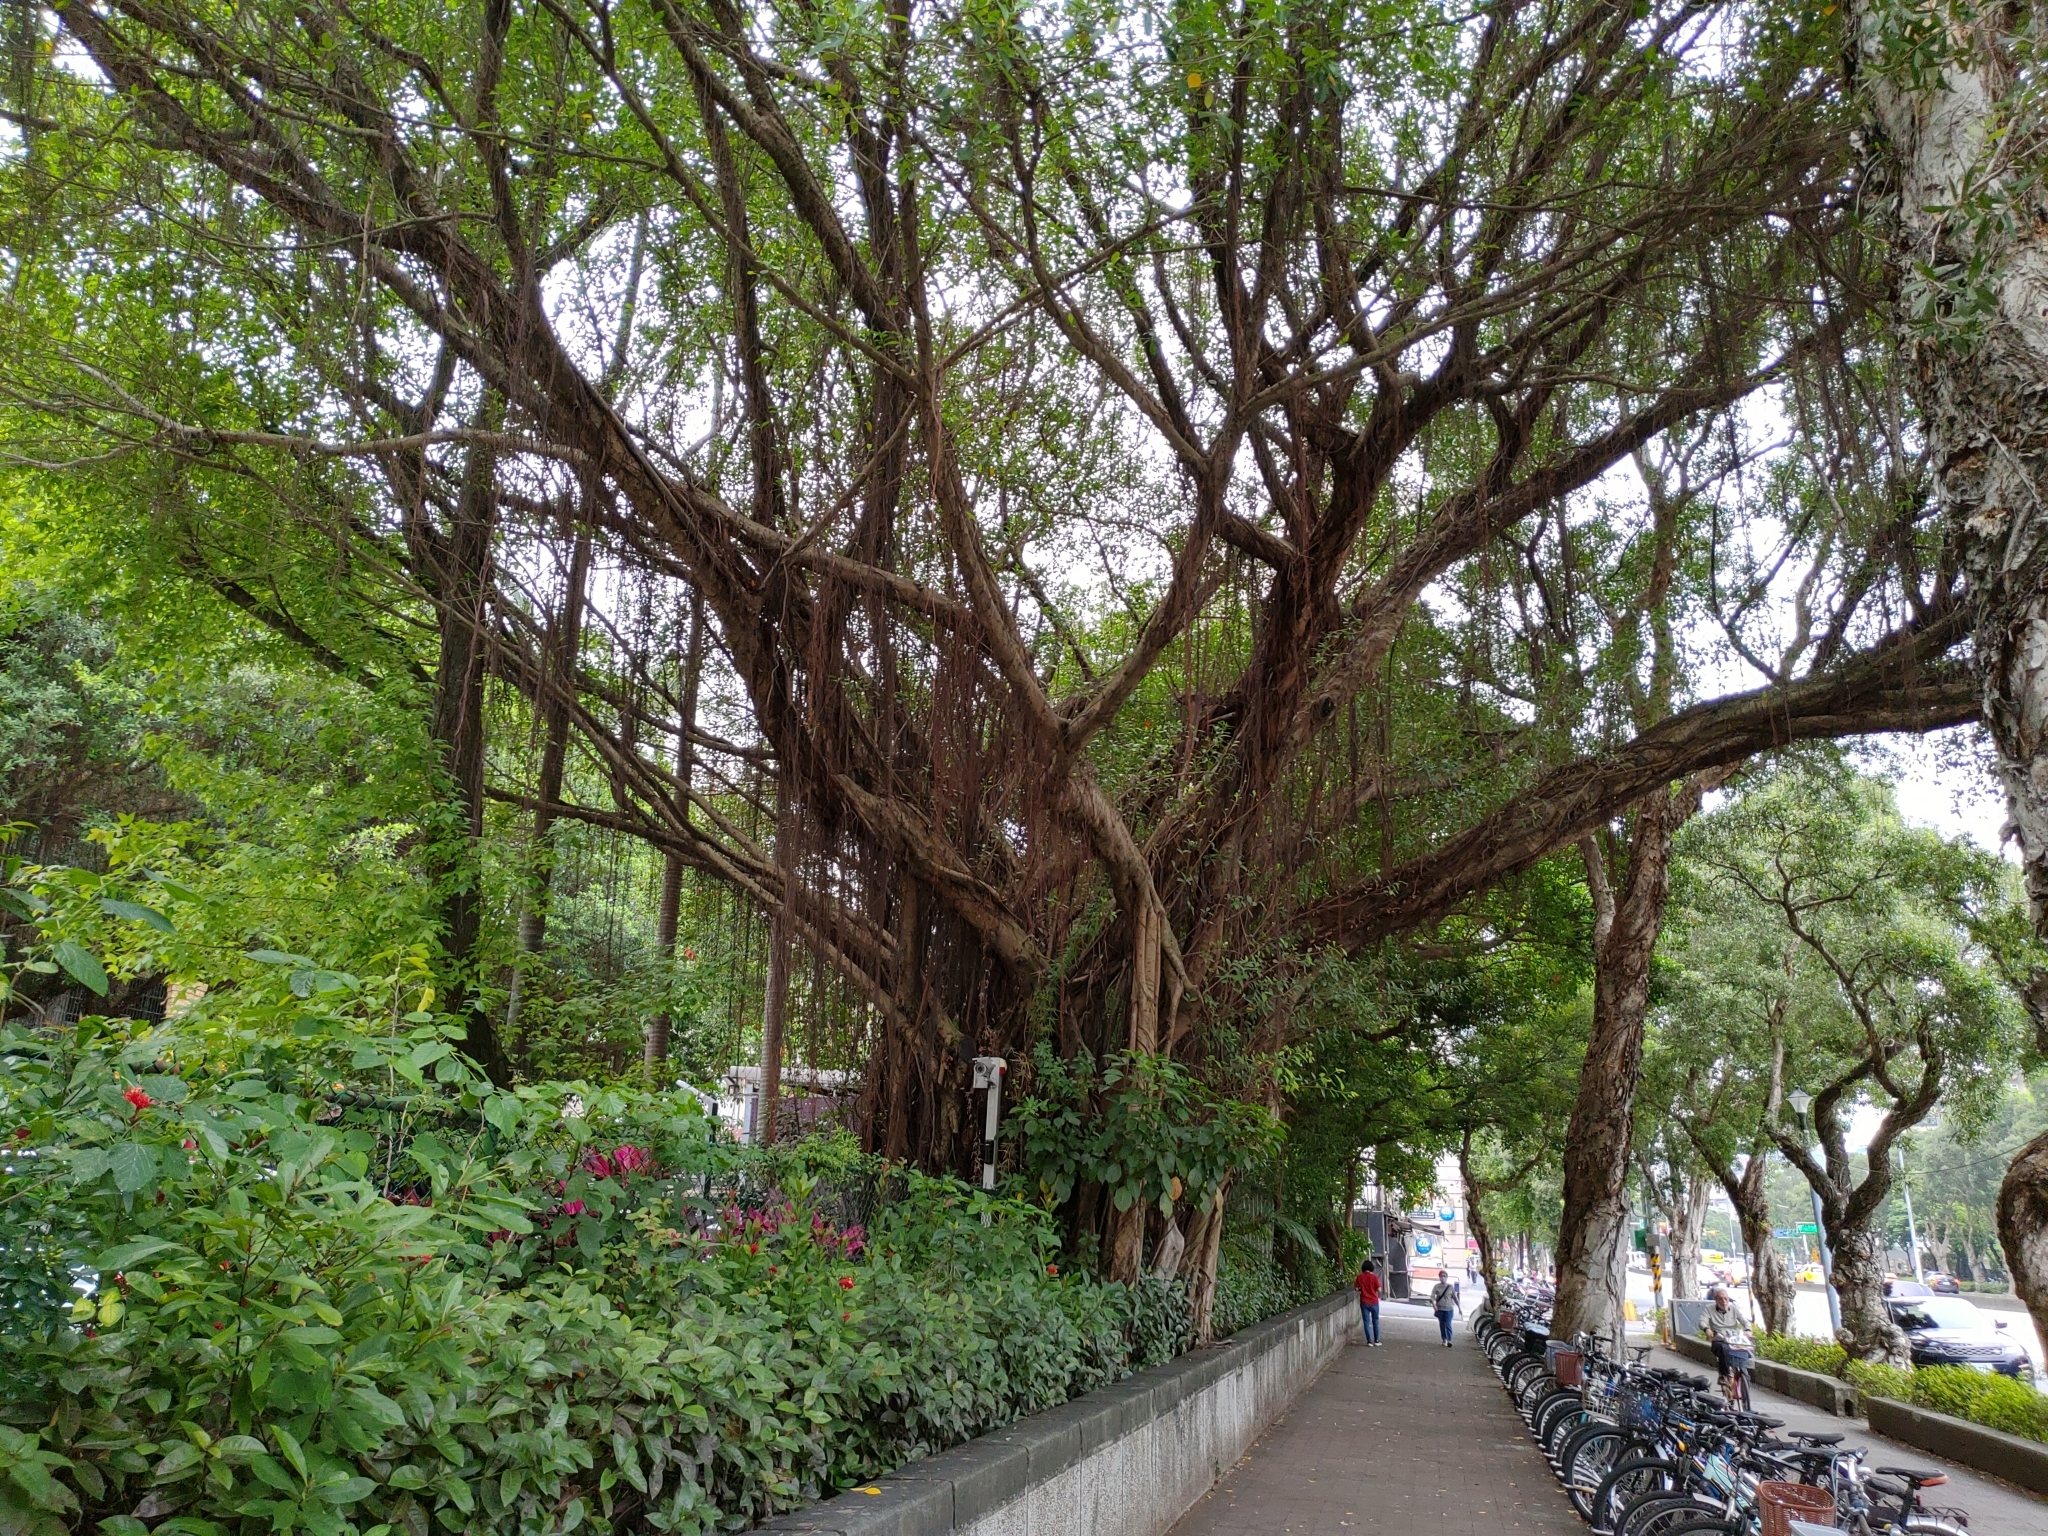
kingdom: Plantae
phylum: Tracheophyta
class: Magnoliopsida
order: Rosales
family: Moraceae
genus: Ficus
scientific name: Ficus microcarpa
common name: Chinese banyan
